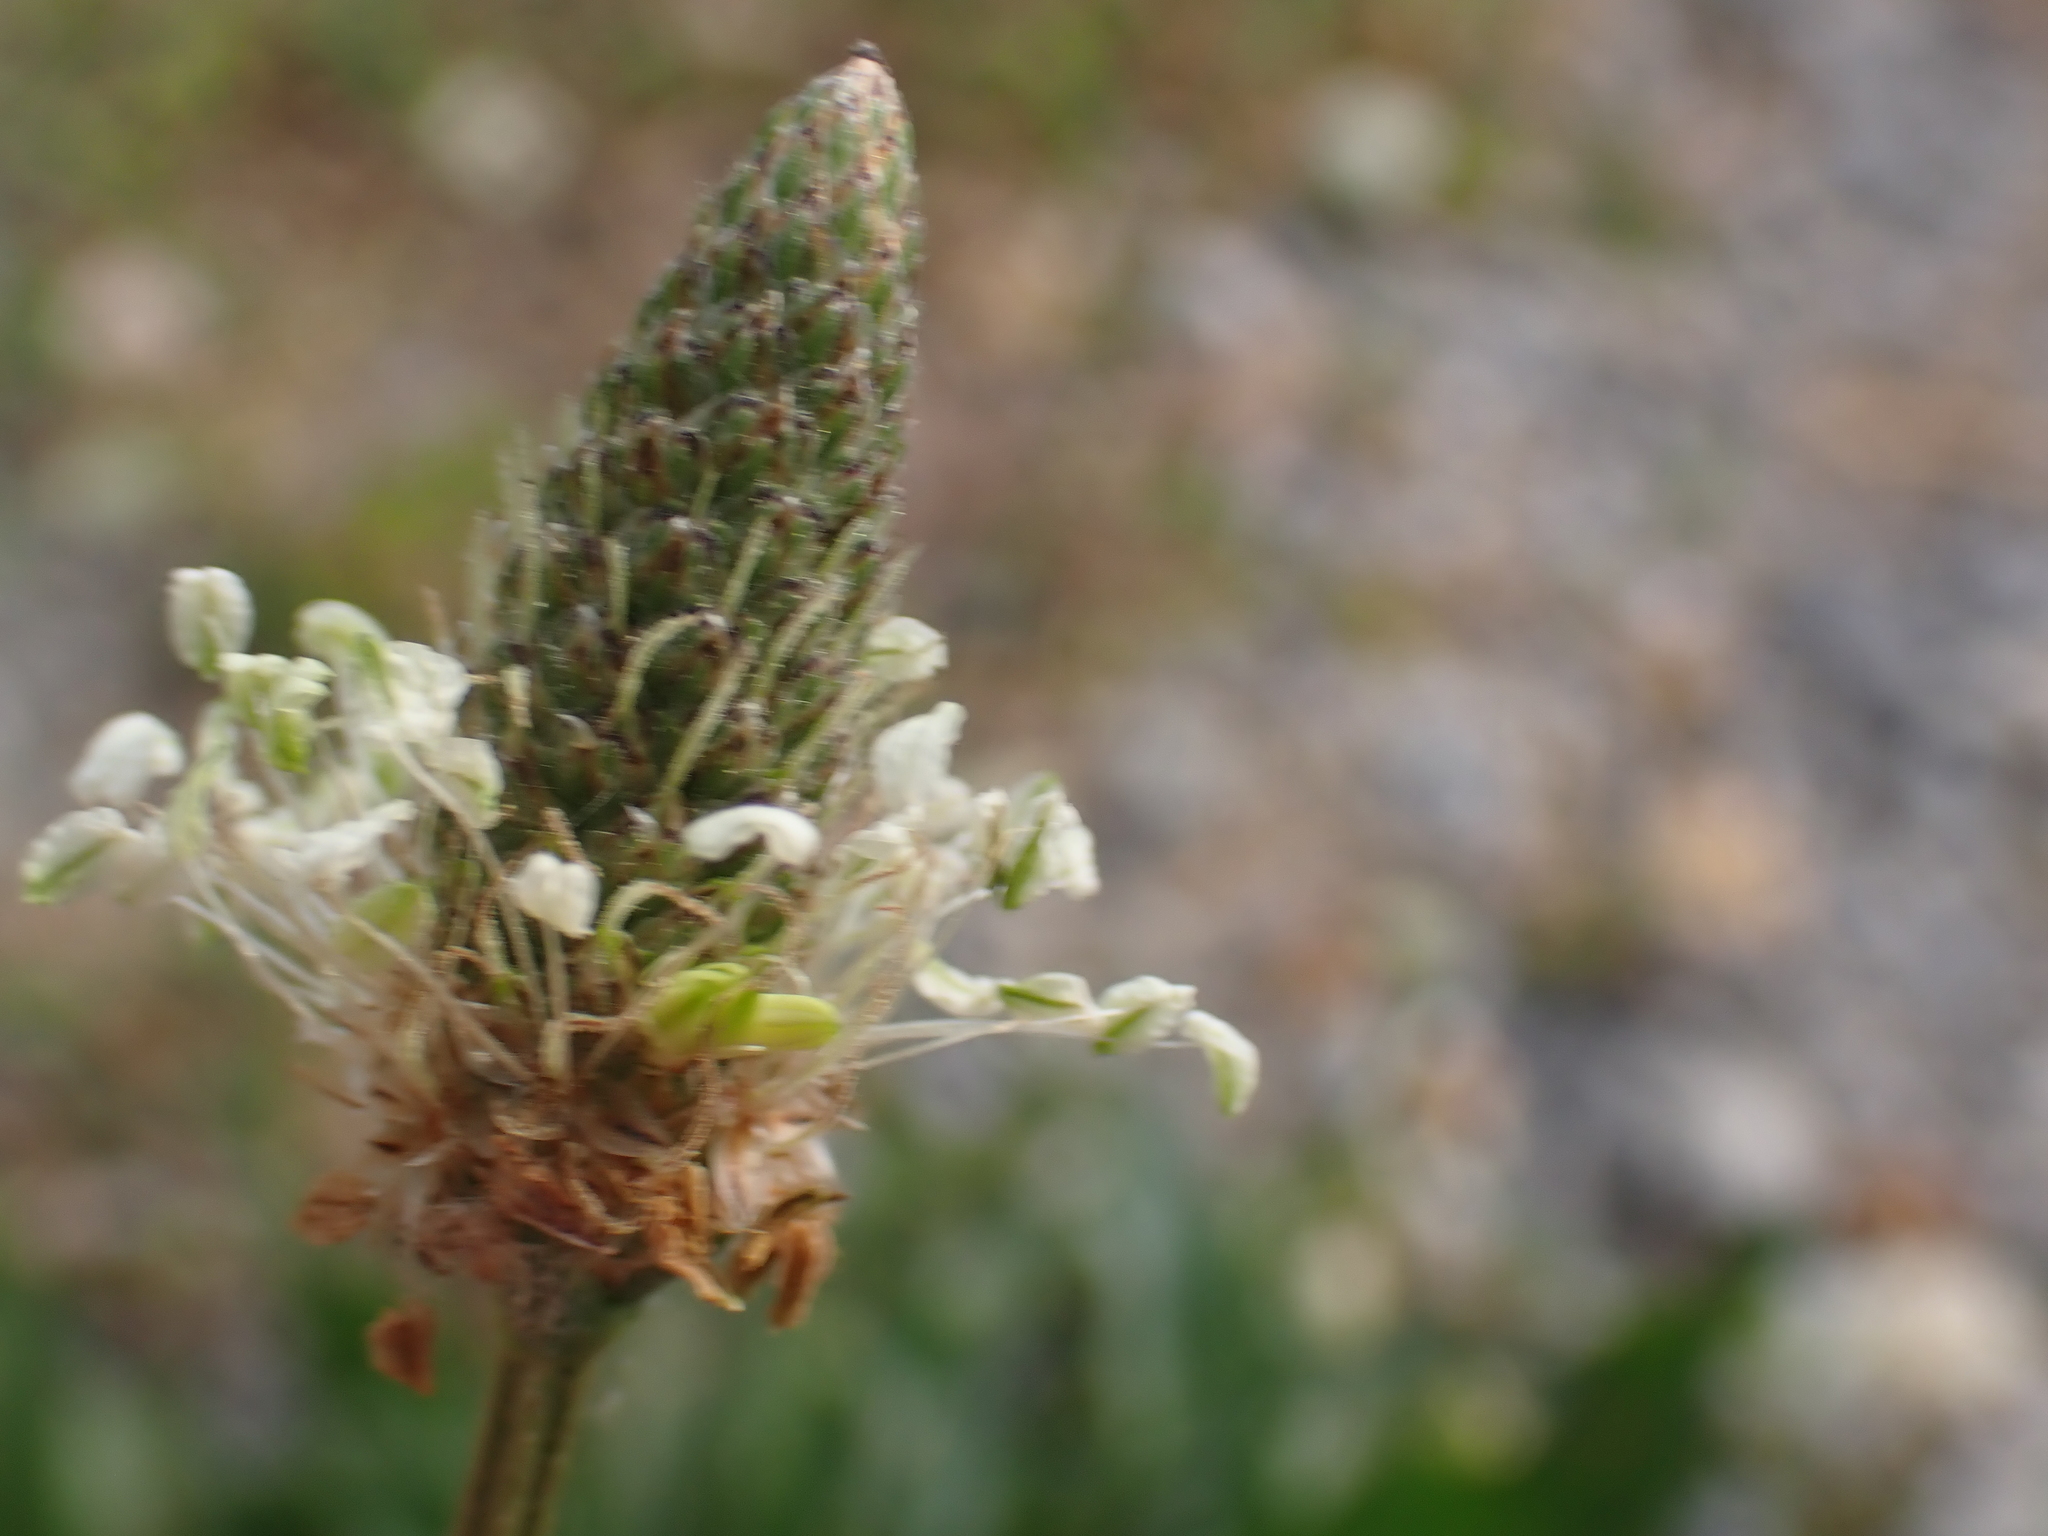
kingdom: Plantae
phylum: Tracheophyta
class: Magnoliopsida
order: Lamiales
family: Plantaginaceae
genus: Plantago
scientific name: Plantago lanceolata
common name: Ribwort plantain
